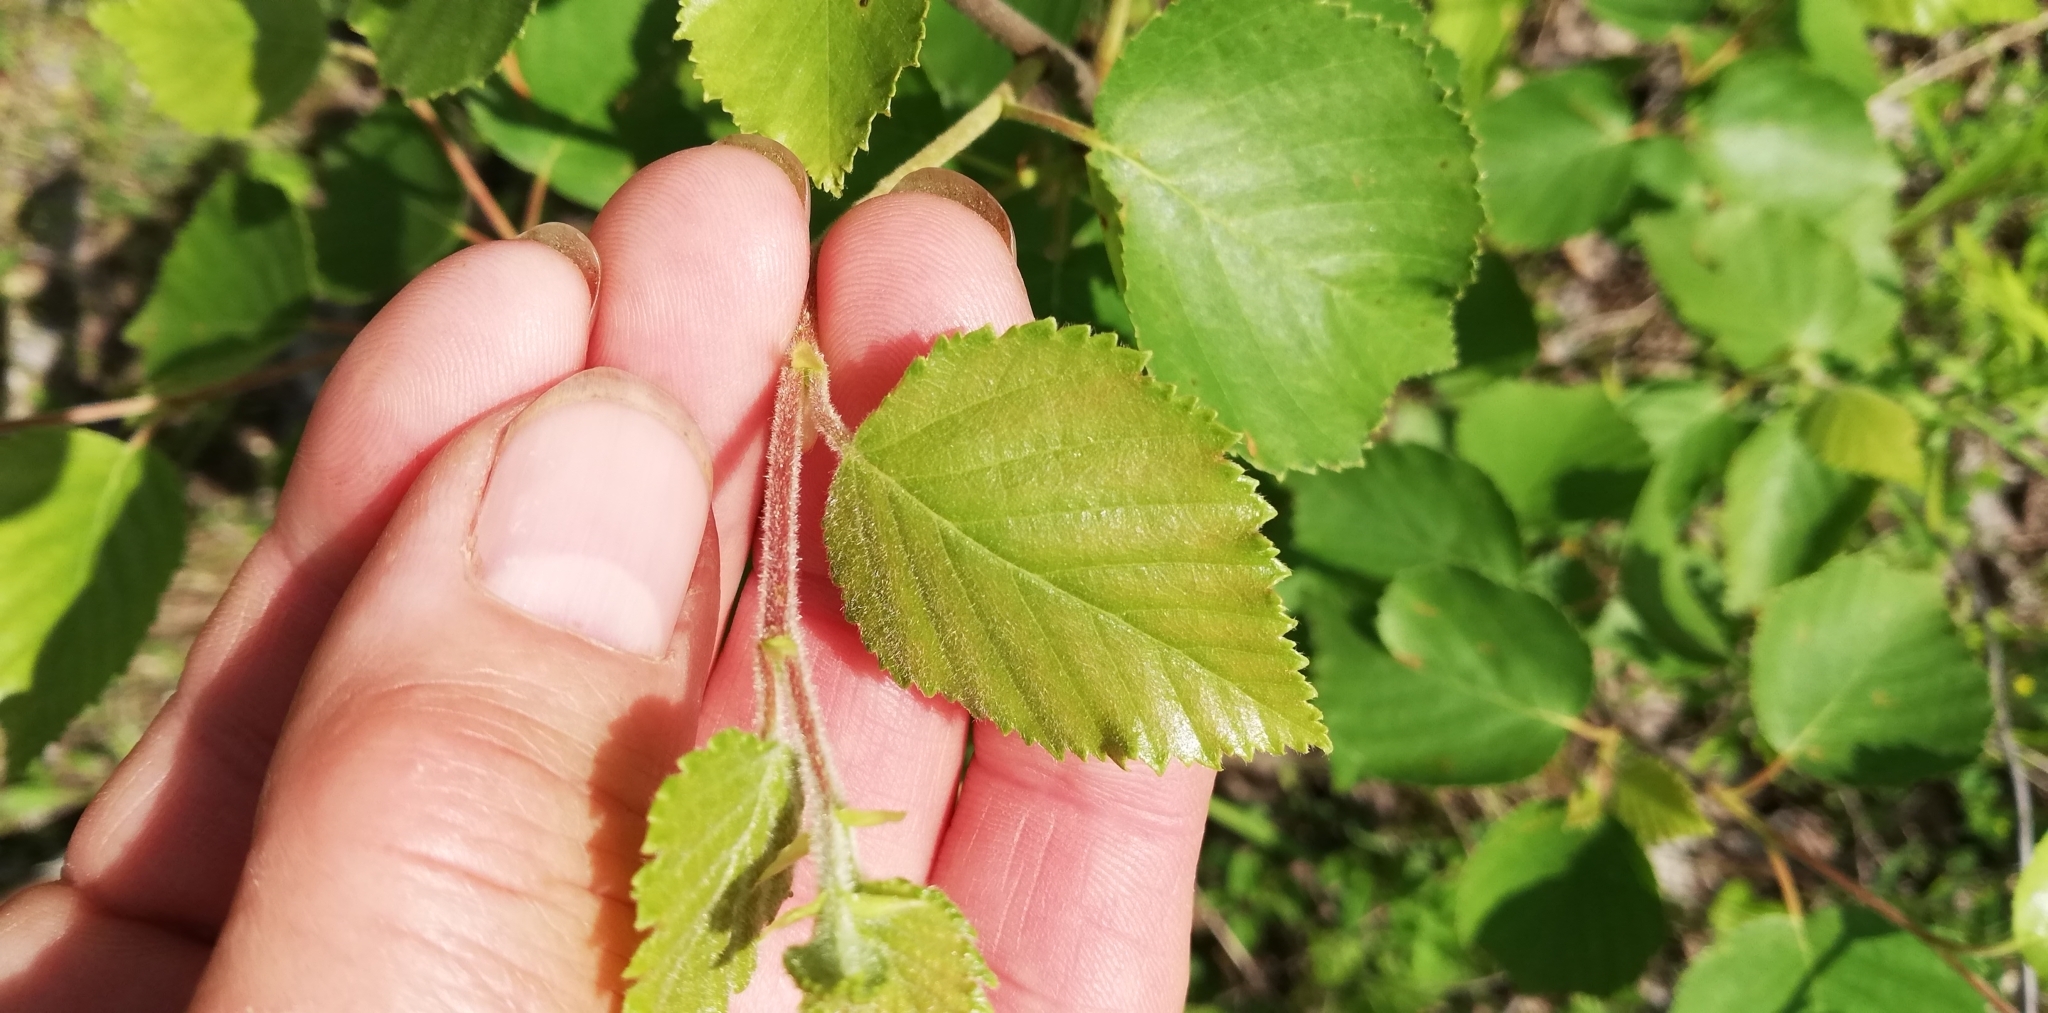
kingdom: Plantae
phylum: Tracheophyta
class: Magnoliopsida
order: Fagales
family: Betulaceae
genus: Betula
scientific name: Betula pubescens
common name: Downy birch
